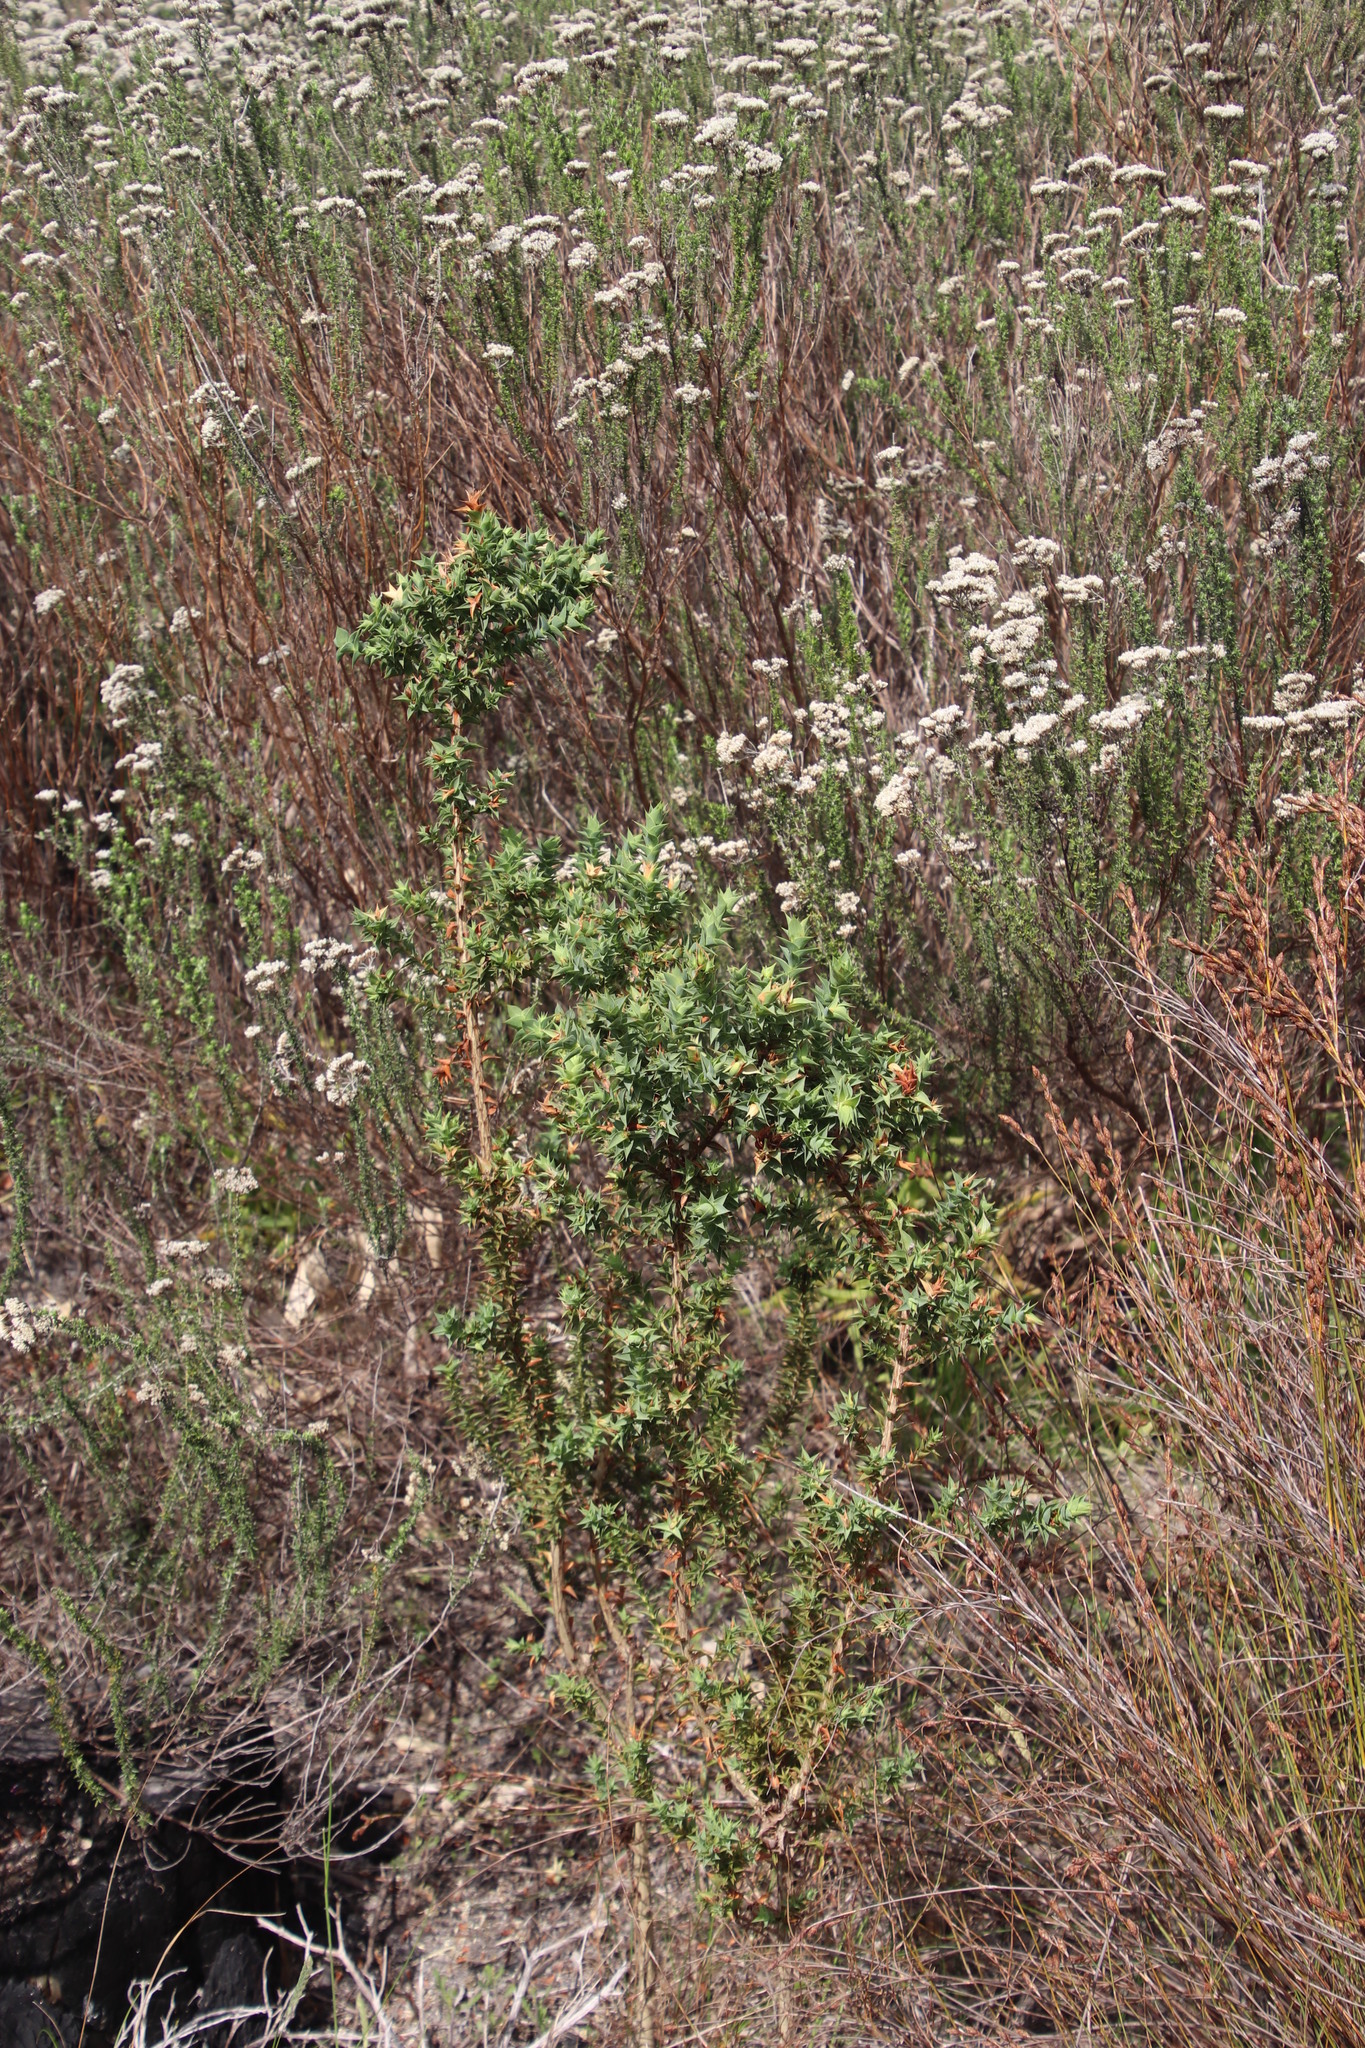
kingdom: Plantae
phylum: Tracheophyta
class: Magnoliopsida
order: Fabales
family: Fabaceae
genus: Aspalathus
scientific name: Aspalathus cordata
